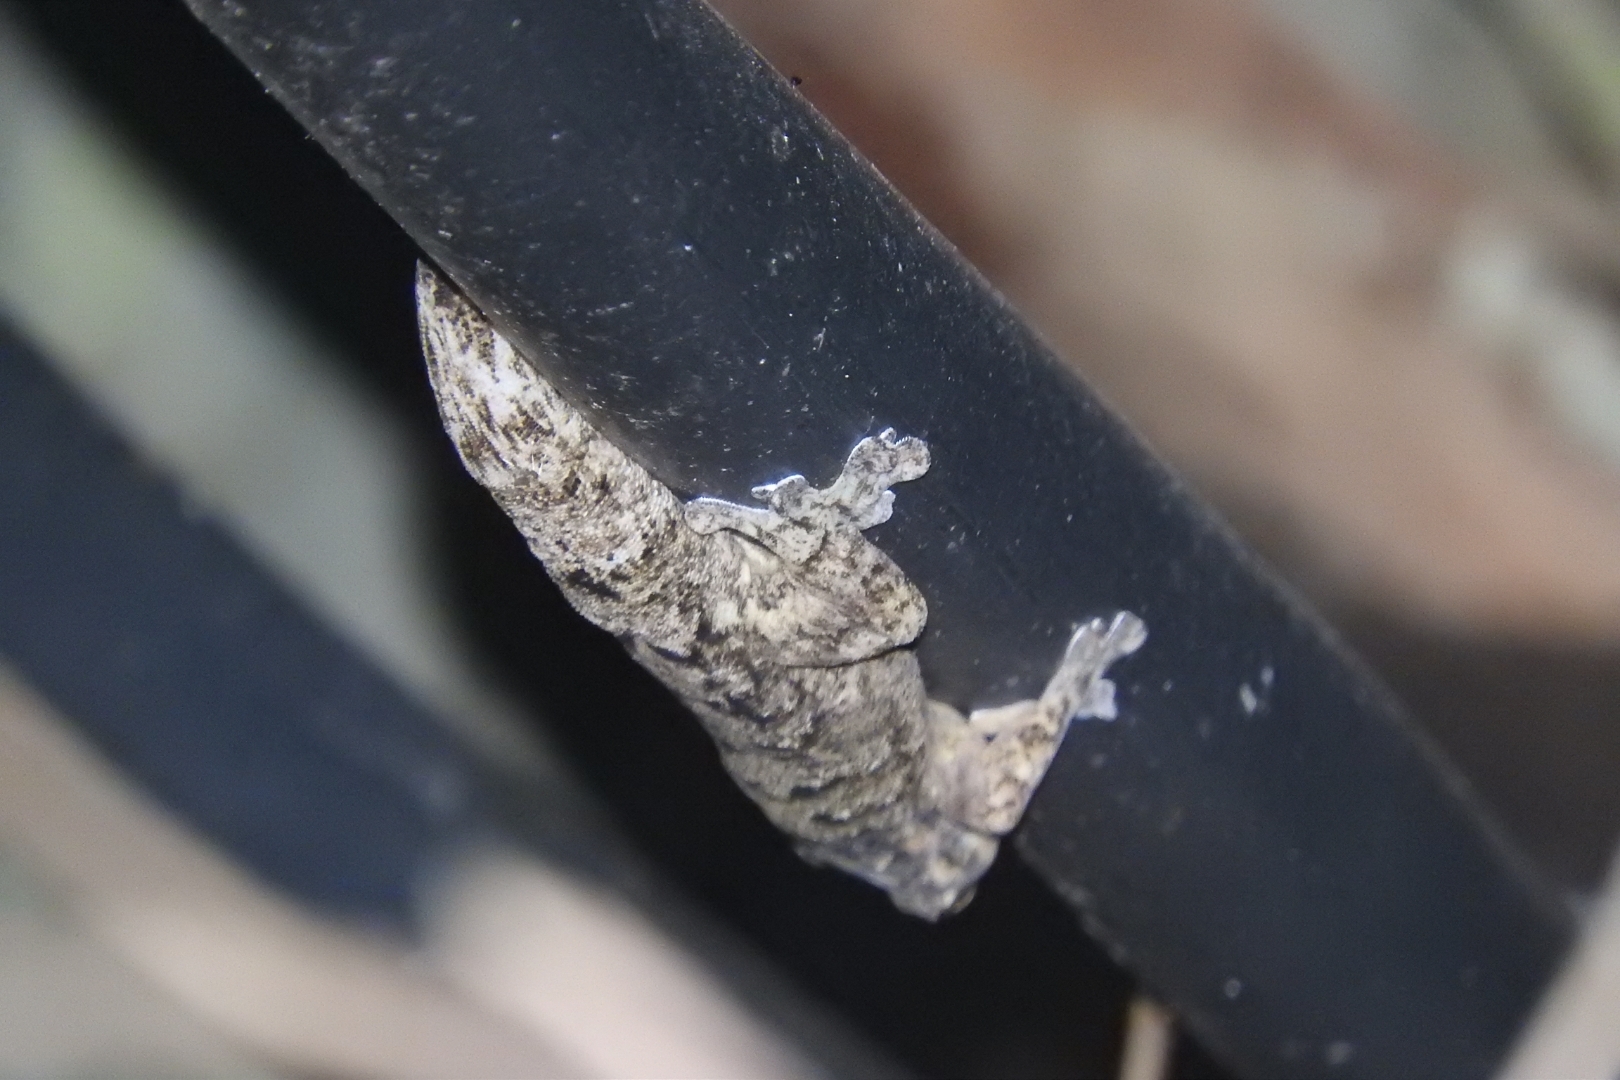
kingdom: Animalia
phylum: Chordata
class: Squamata
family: Phyllodactylidae
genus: Thecadactylus
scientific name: Thecadactylus rapicauda
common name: Turnip-tailed gecko
